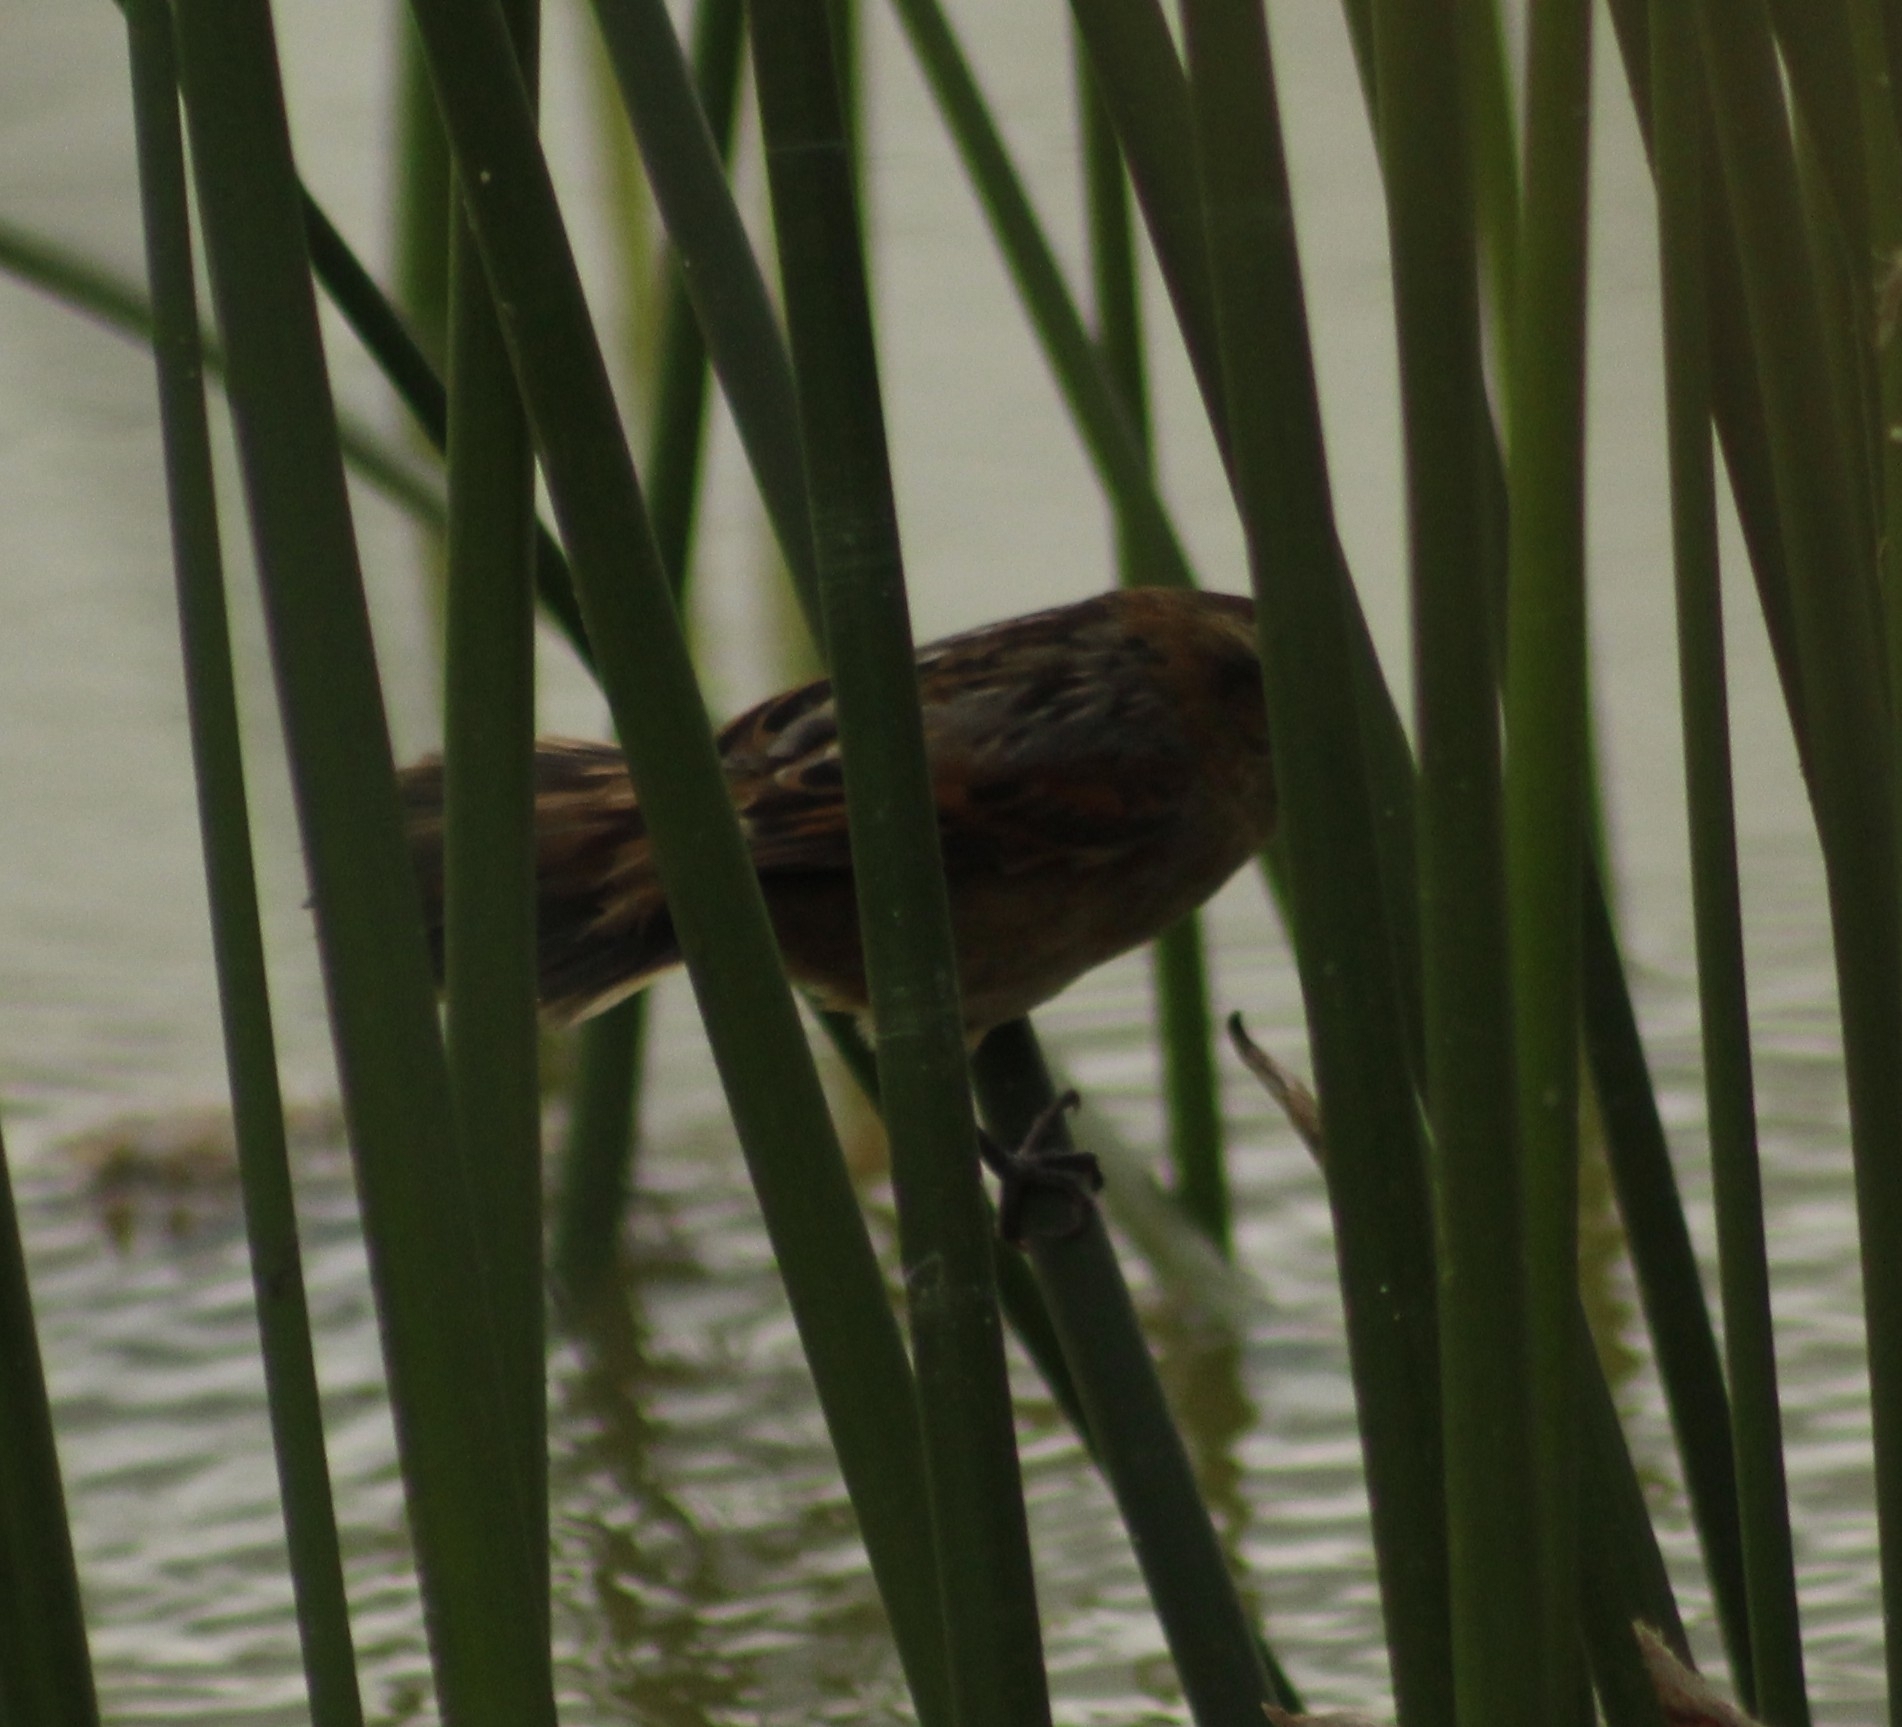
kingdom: Animalia
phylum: Chordata
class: Aves
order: Passeriformes
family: Furnariidae
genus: Phleocryptes
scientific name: Phleocryptes melanops
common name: Wren-like rushbird
